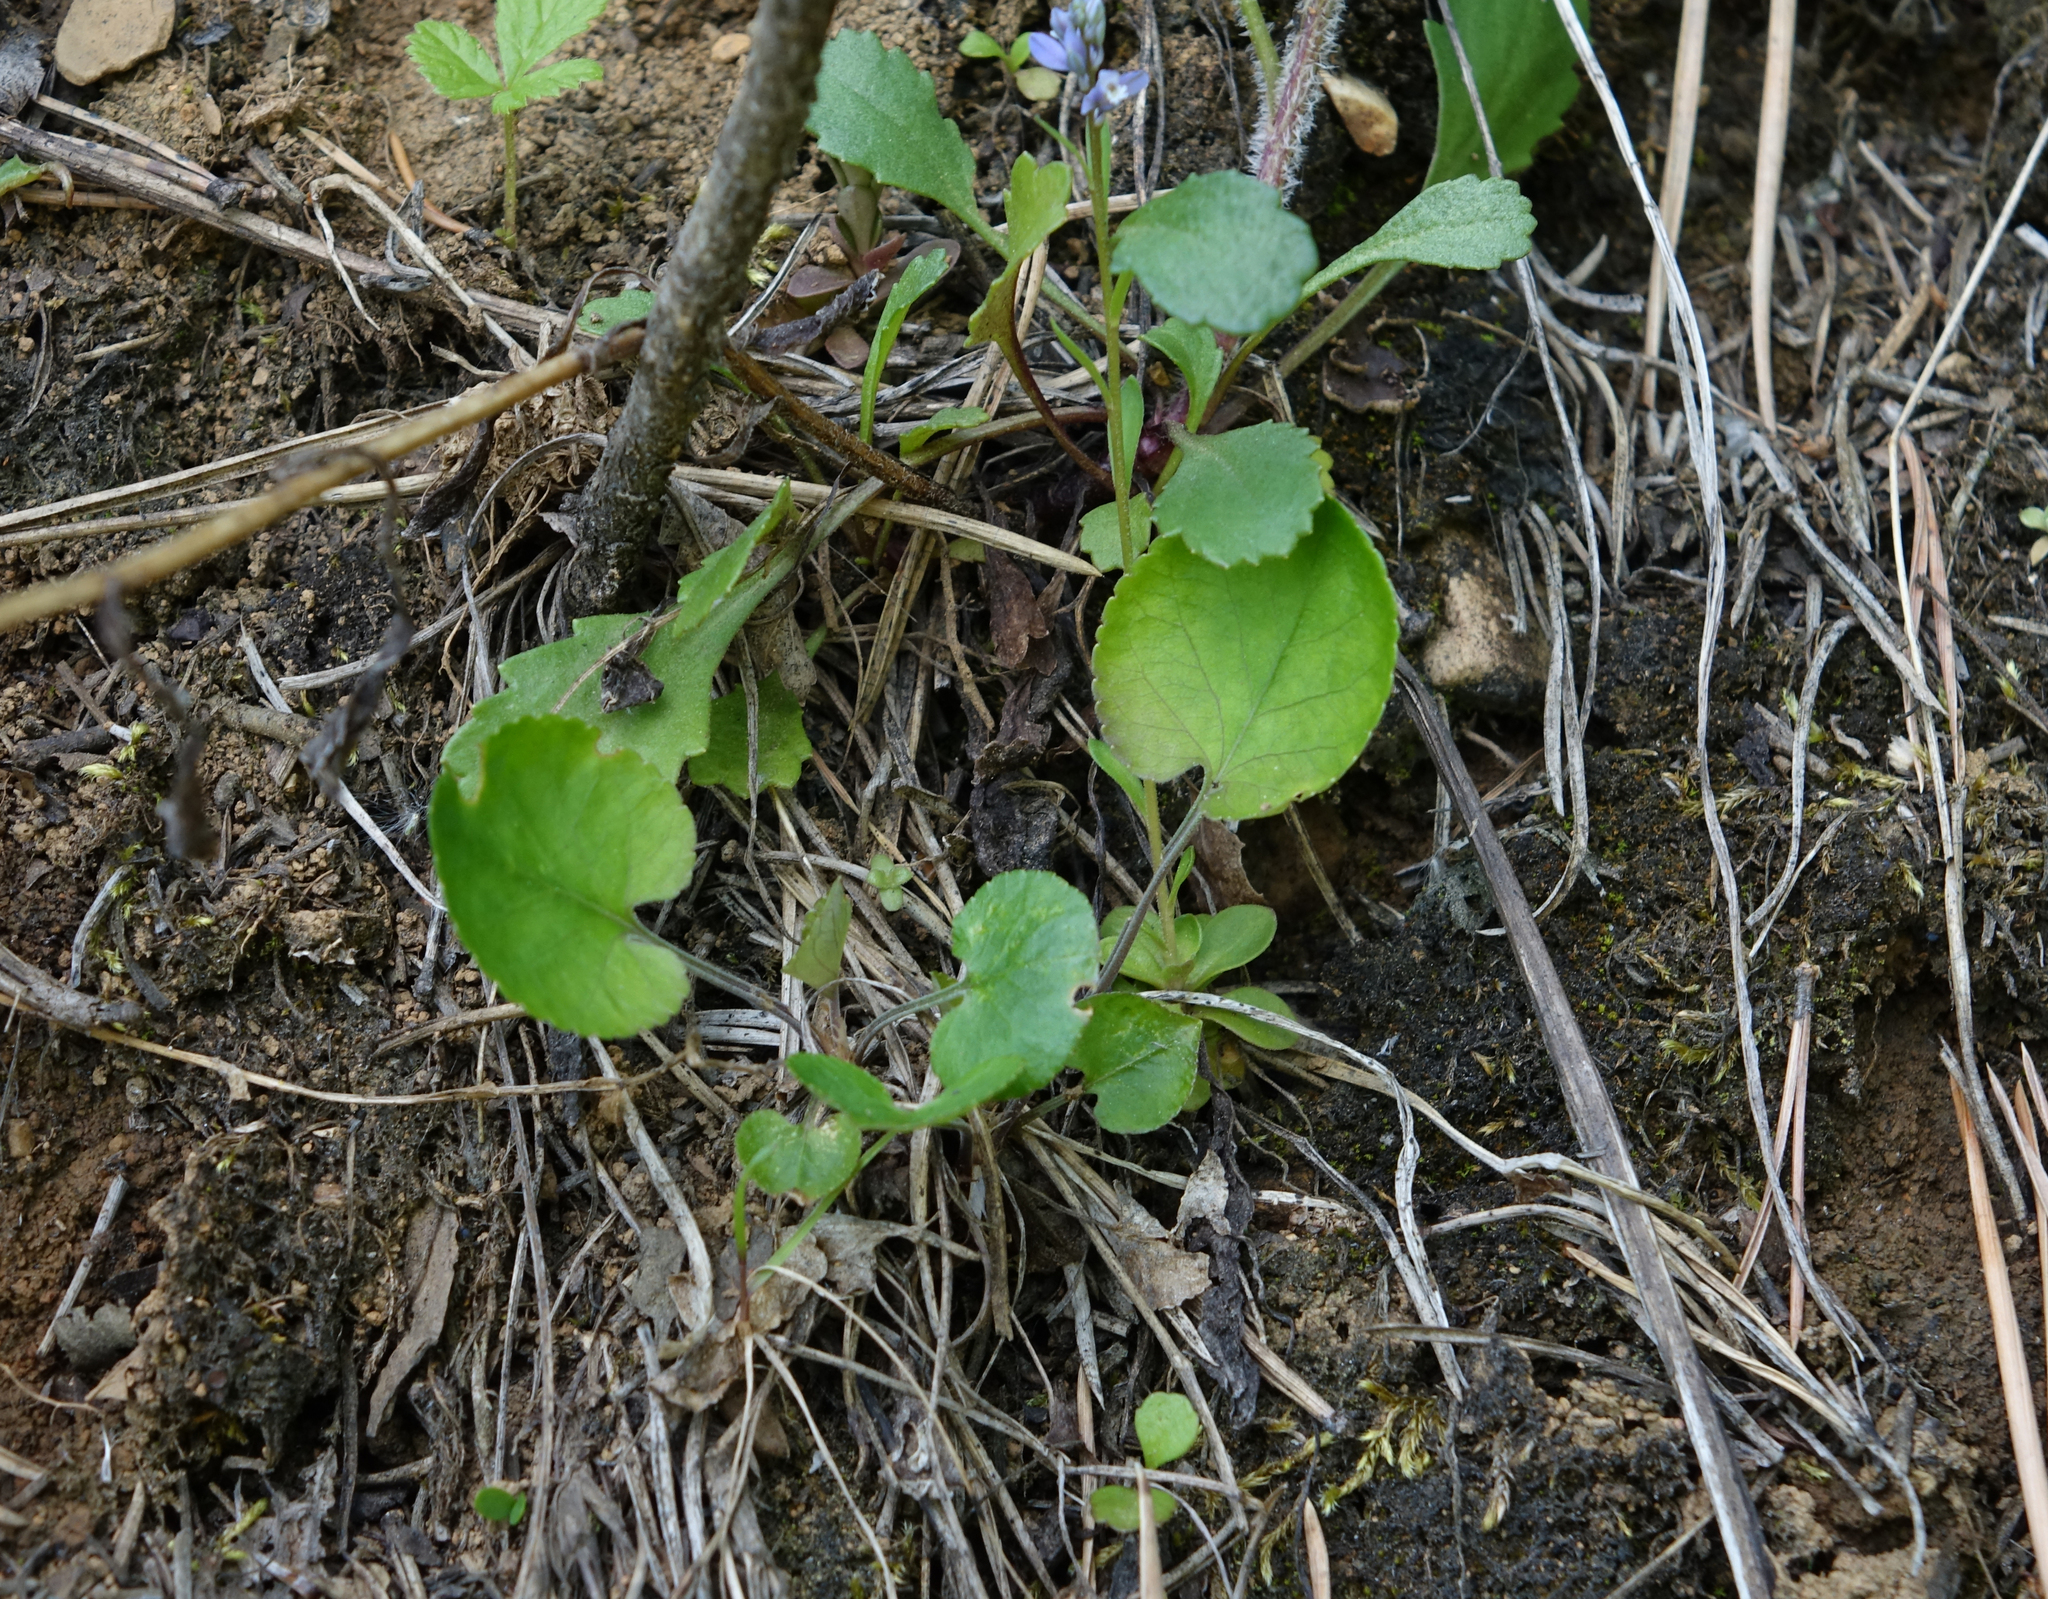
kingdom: Plantae
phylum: Tracheophyta
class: Magnoliopsida
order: Malpighiales
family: Violaceae
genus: Viola
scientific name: Viola rupestris
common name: Teesdale violet
